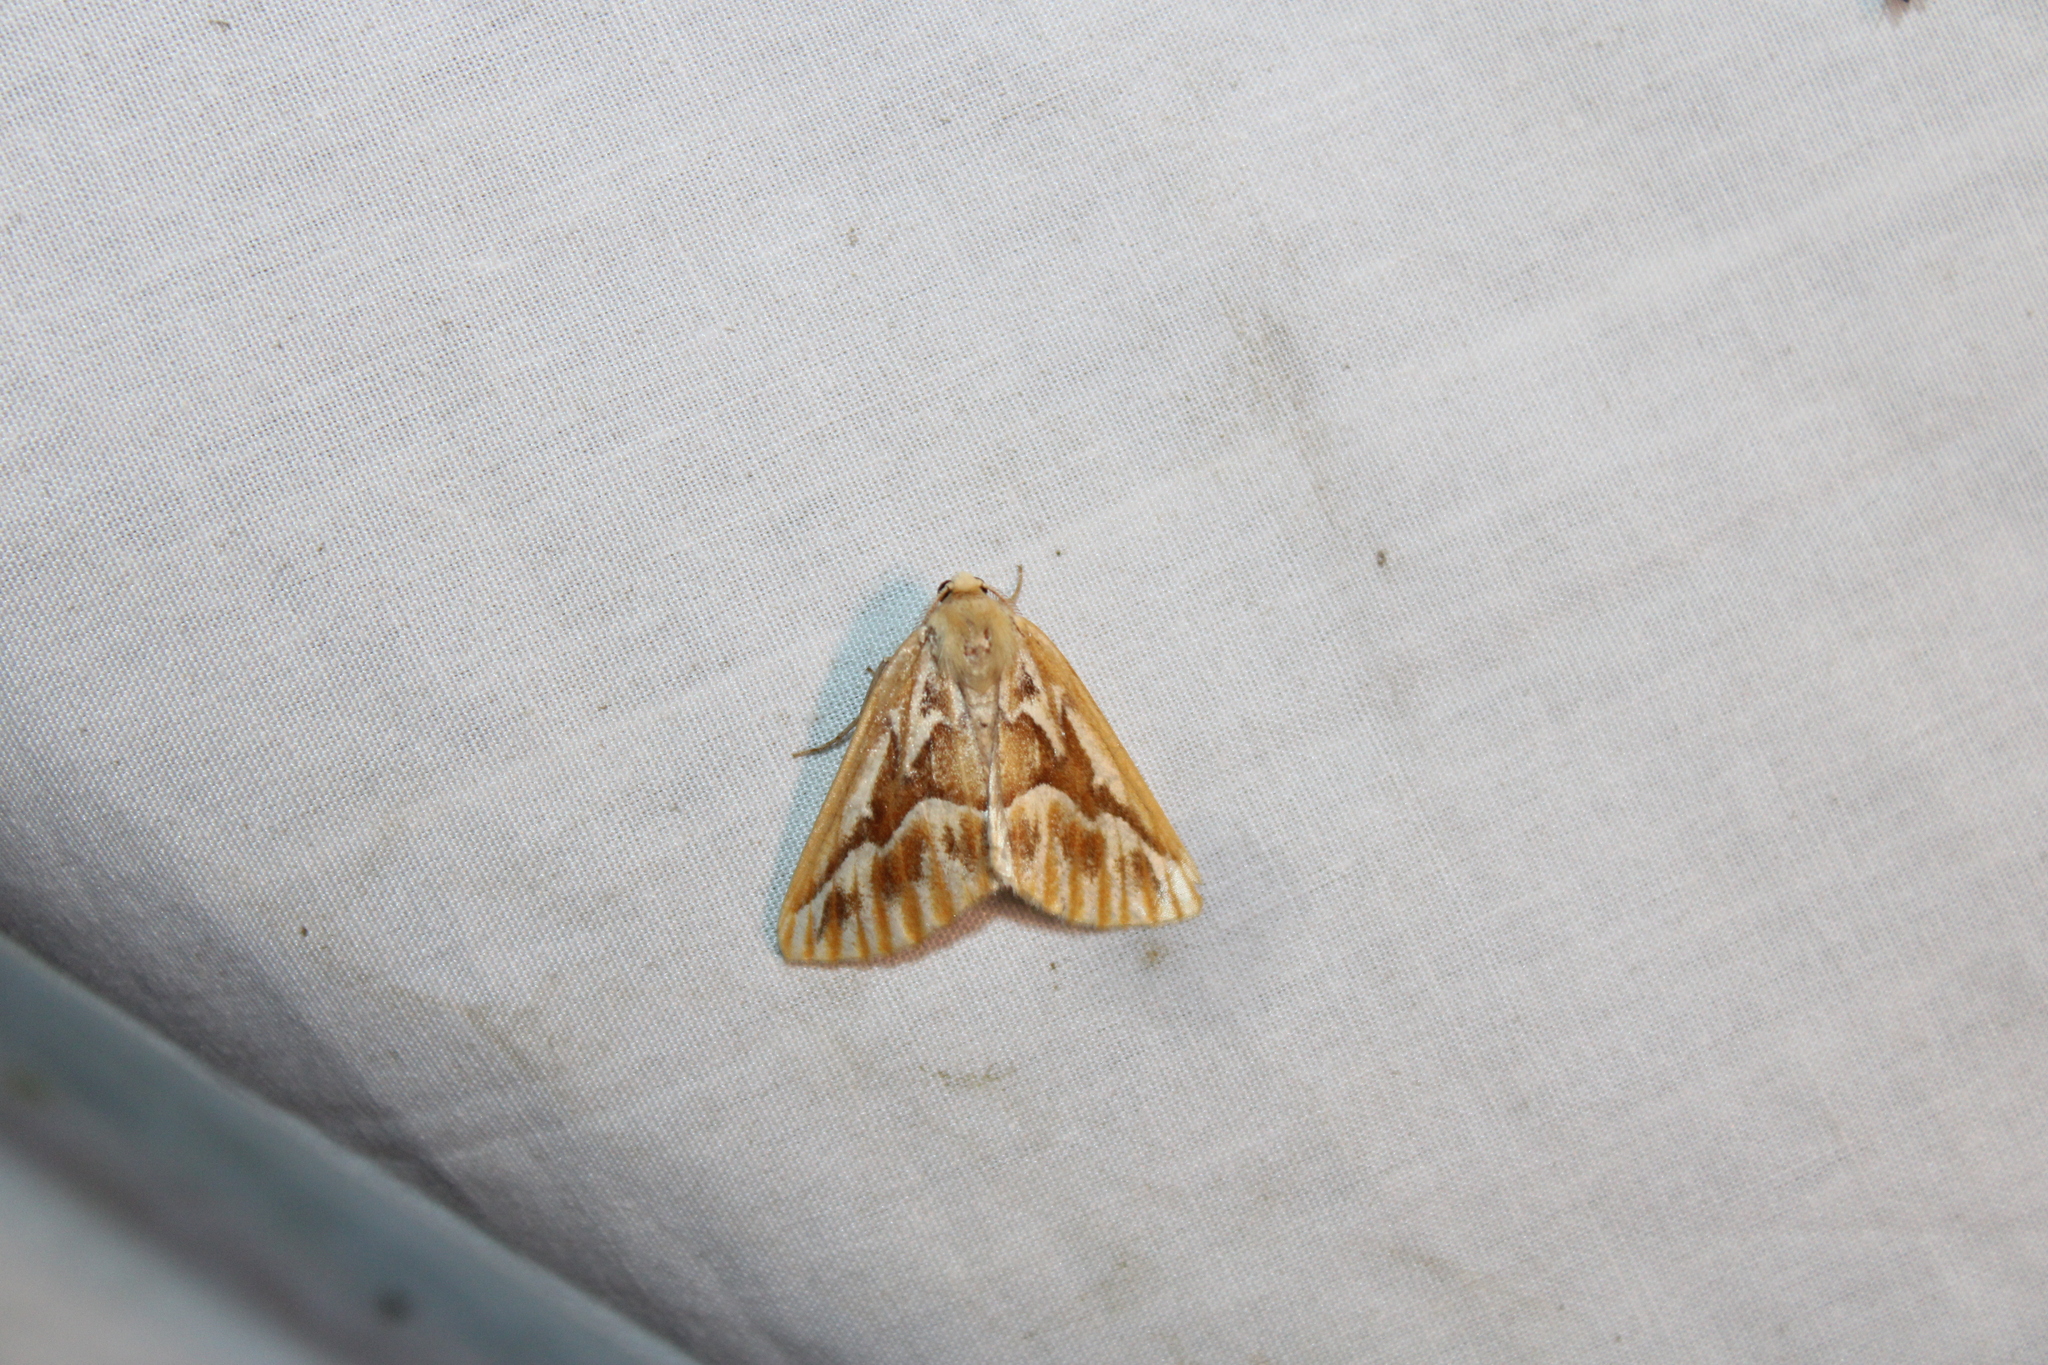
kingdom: Animalia
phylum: Arthropoda
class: Insecta
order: Lepidoptera
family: Geometridae
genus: Caripeta
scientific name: Caripeta piniata
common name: Northern pine looper moth
